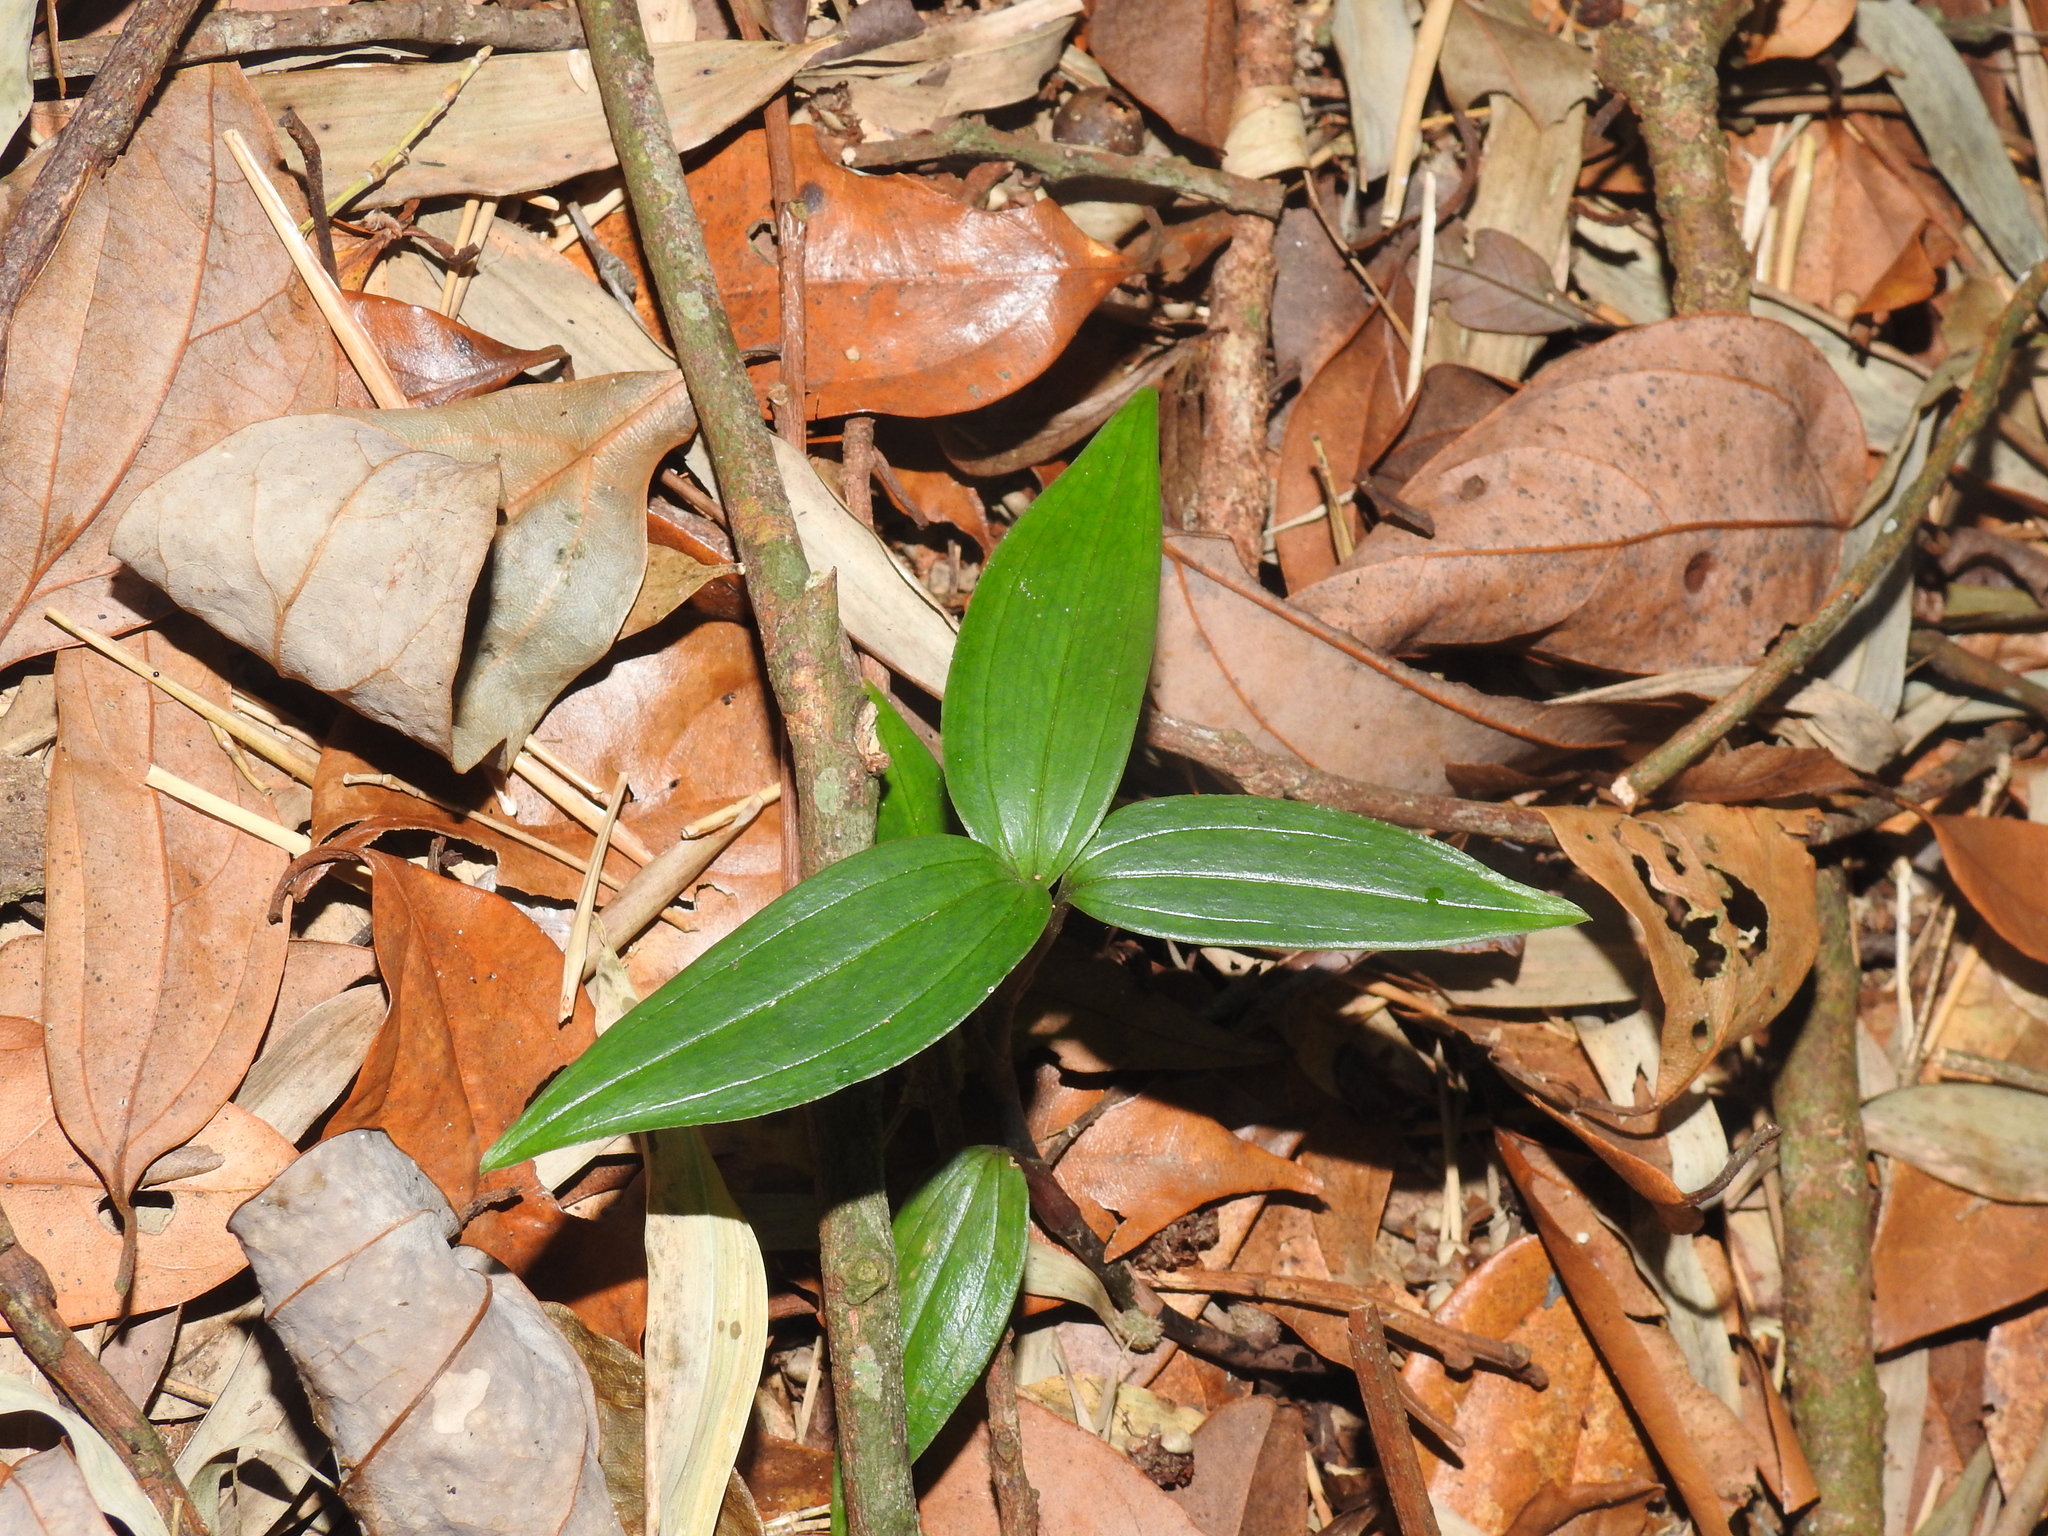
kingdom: Plantae
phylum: Tracheophyta
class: Liliopsida
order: Asparagales
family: Orchidaceae
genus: Hetaeria
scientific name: Hetaeria anomala
